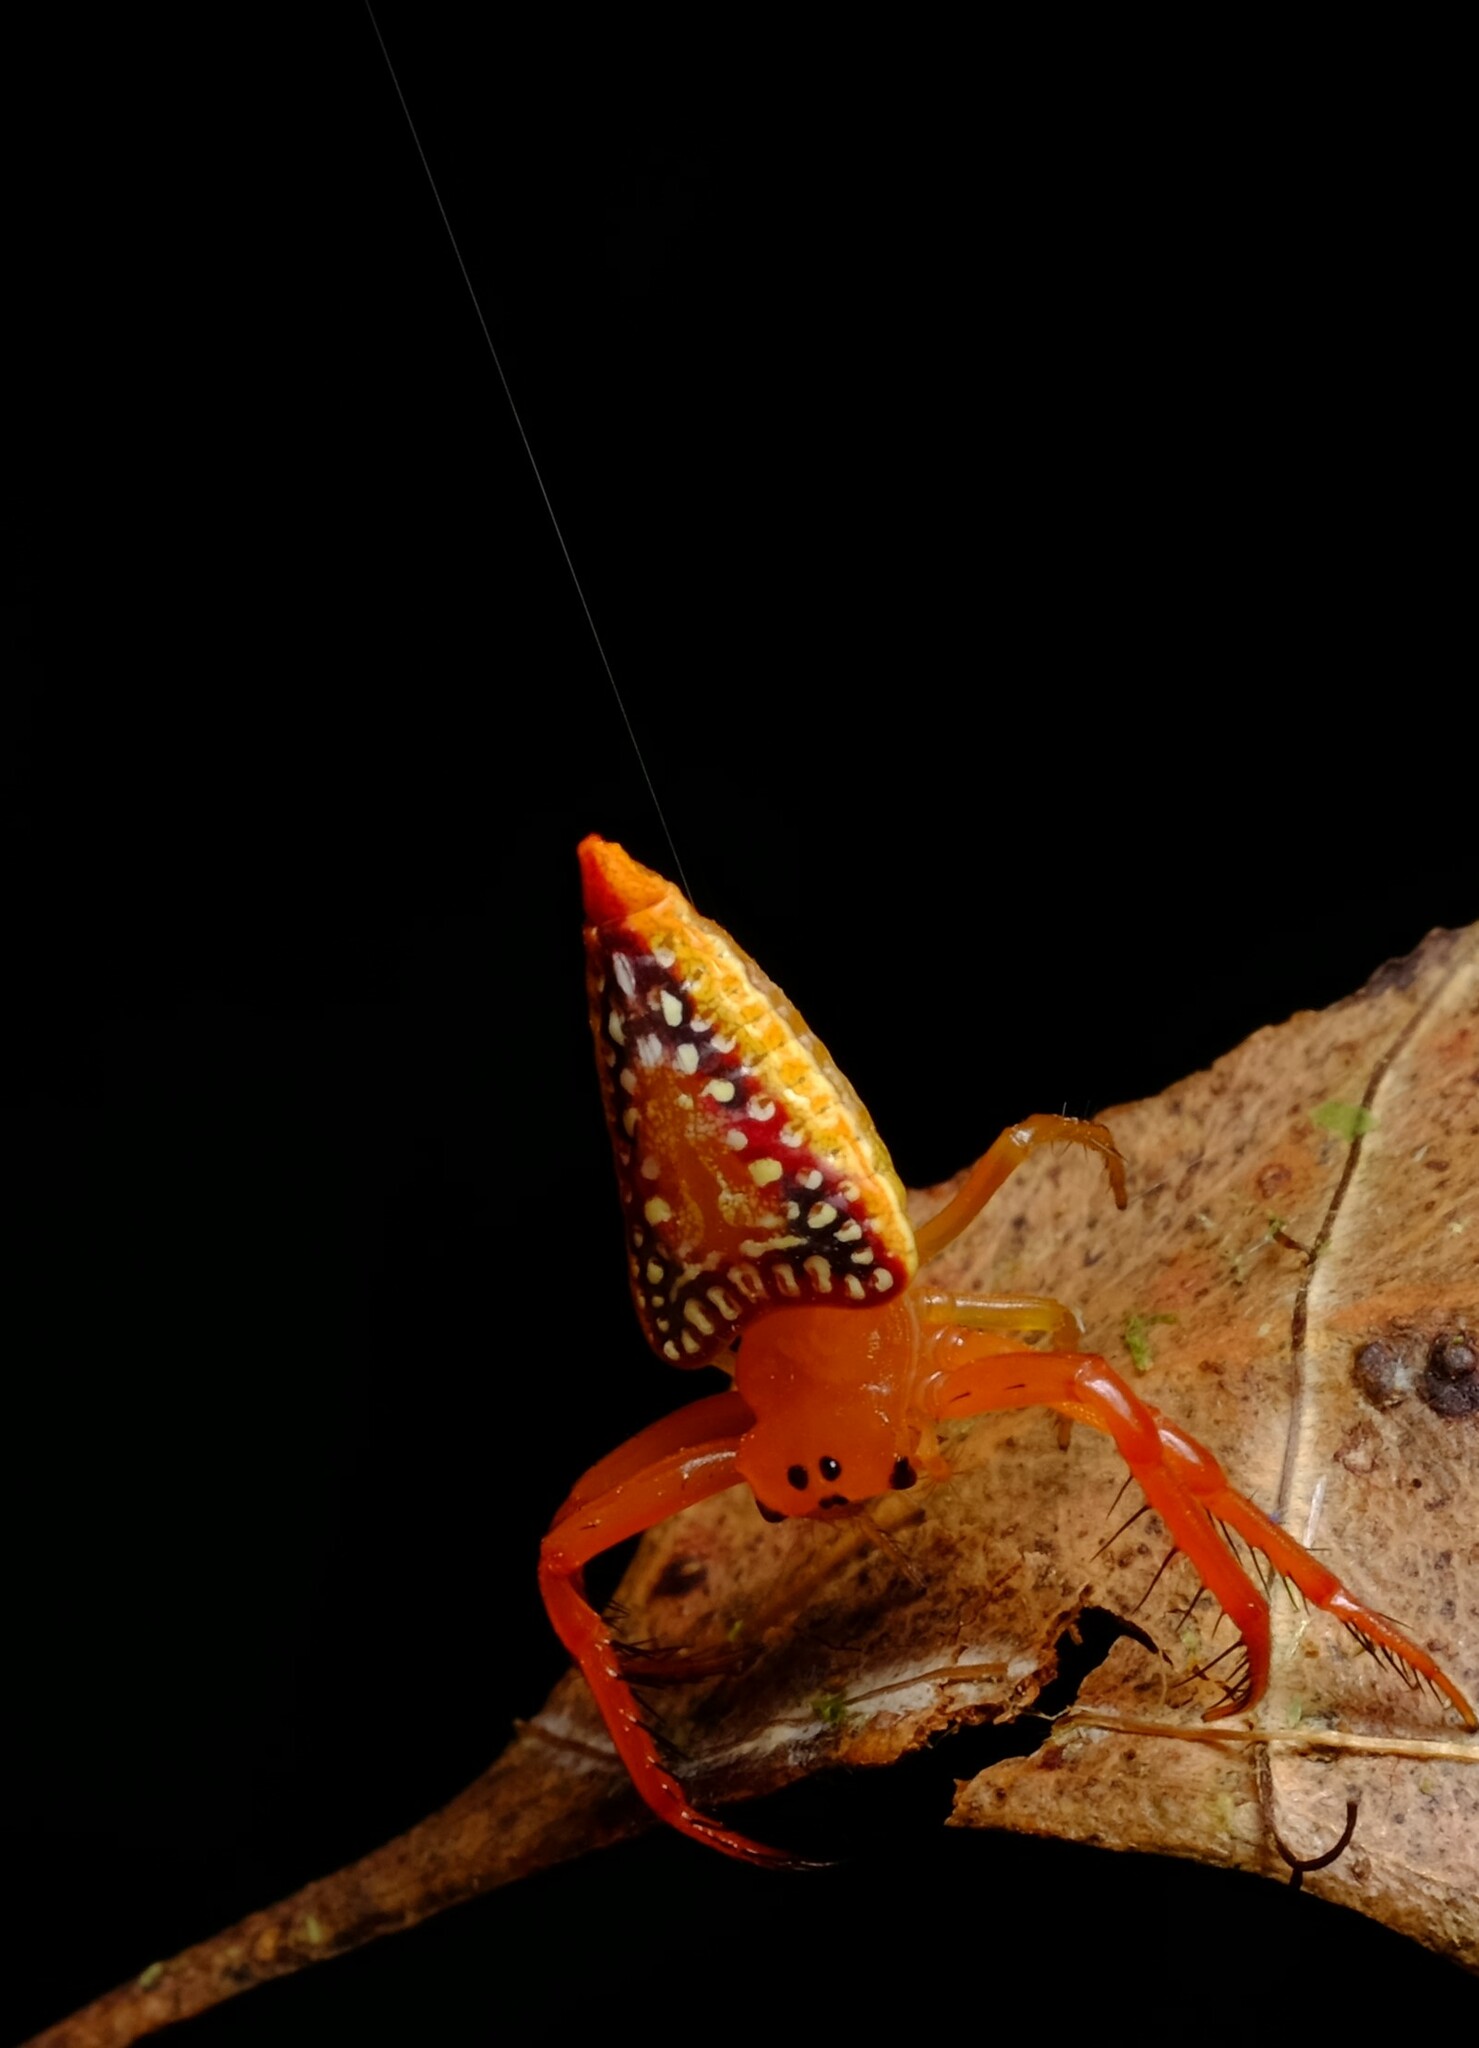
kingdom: Animalia
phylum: Arthropoda
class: Arachnida
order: Araneae
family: Arkyidae
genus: Arkys
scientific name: Arkys walckenaeri
